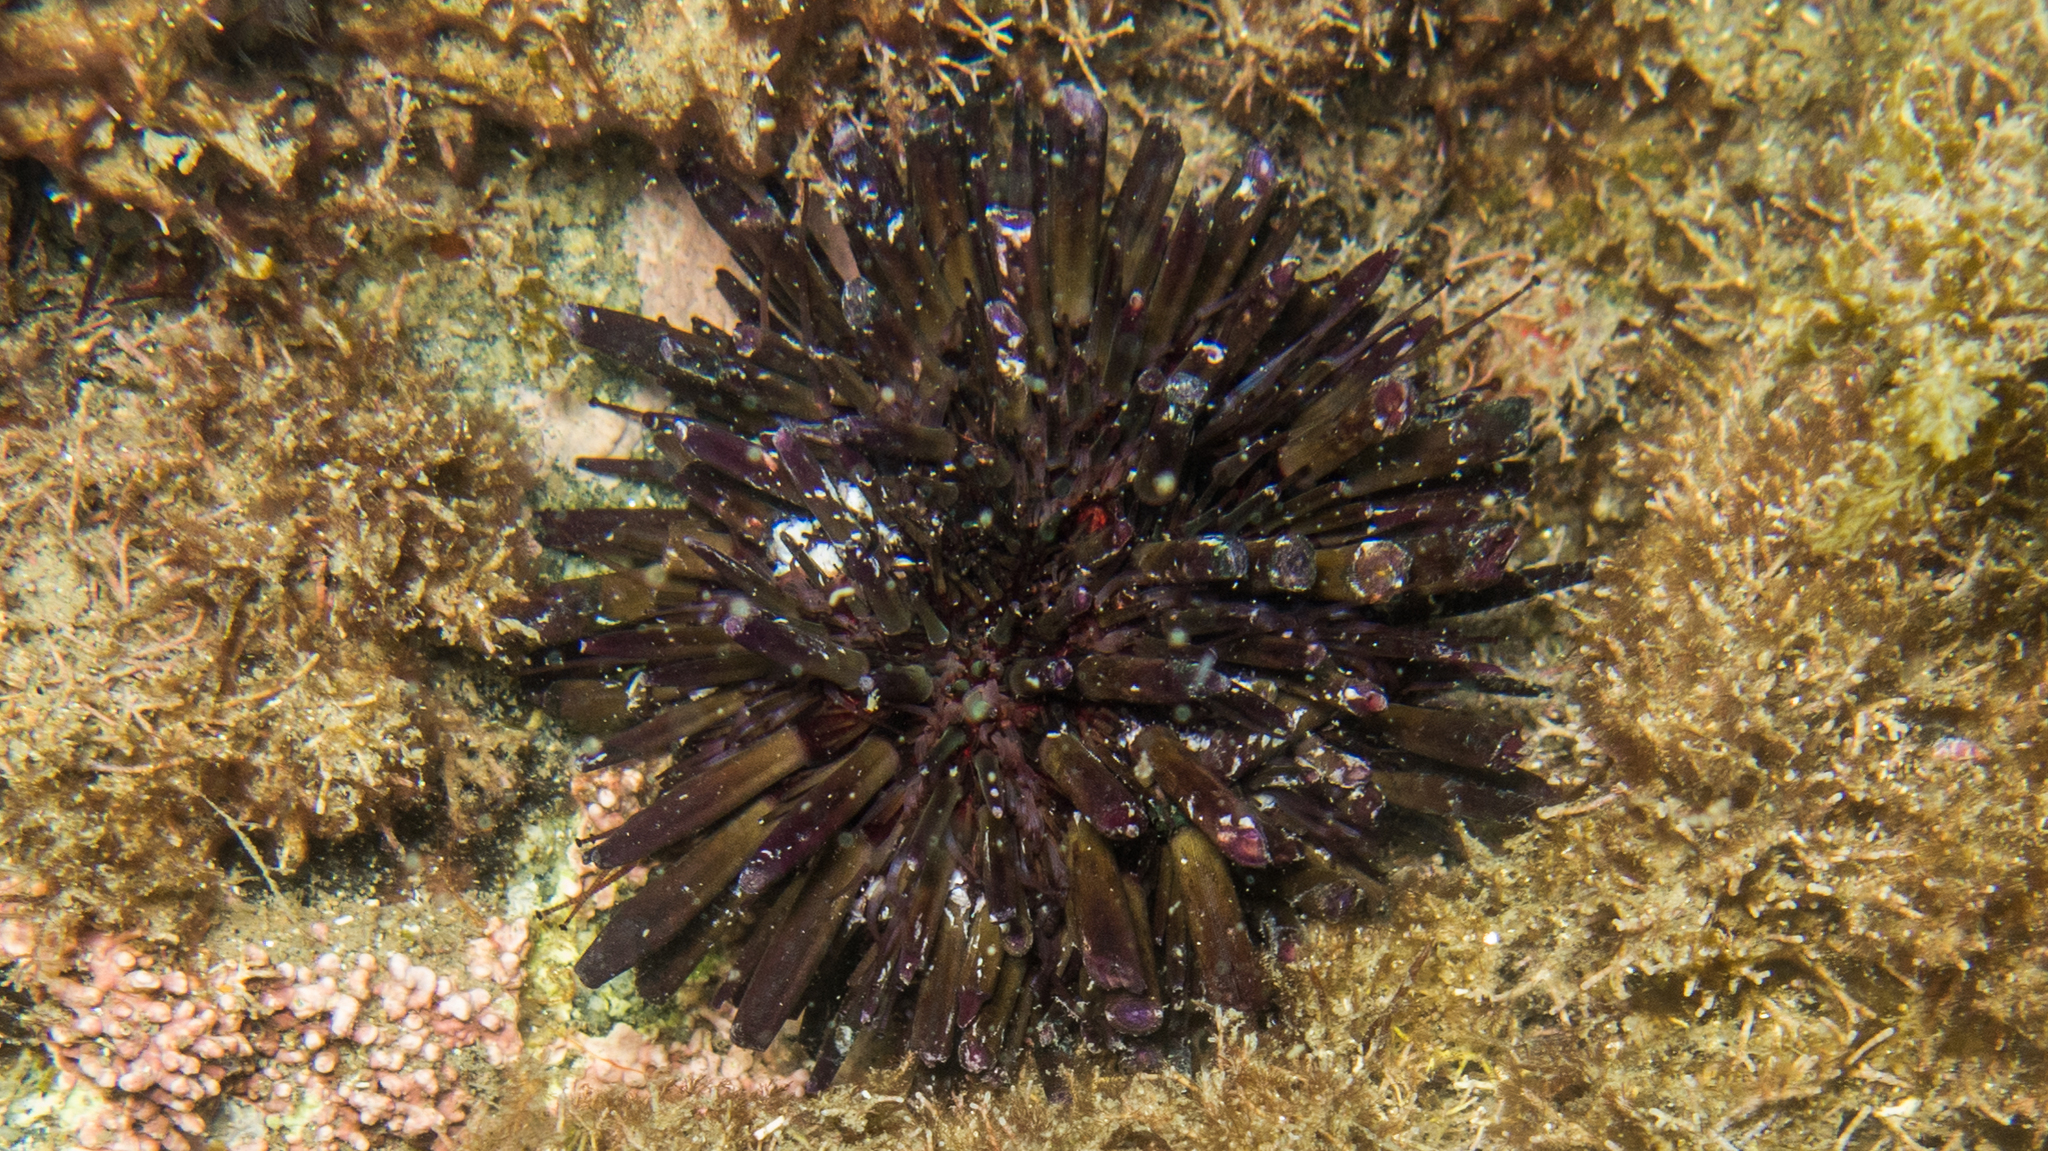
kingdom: Animalia
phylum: Echinodermata
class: Echinoidea
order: Camarodonta
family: Echinometridae
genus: Echinometra
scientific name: Echinometra lucunter
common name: Rock urchin
